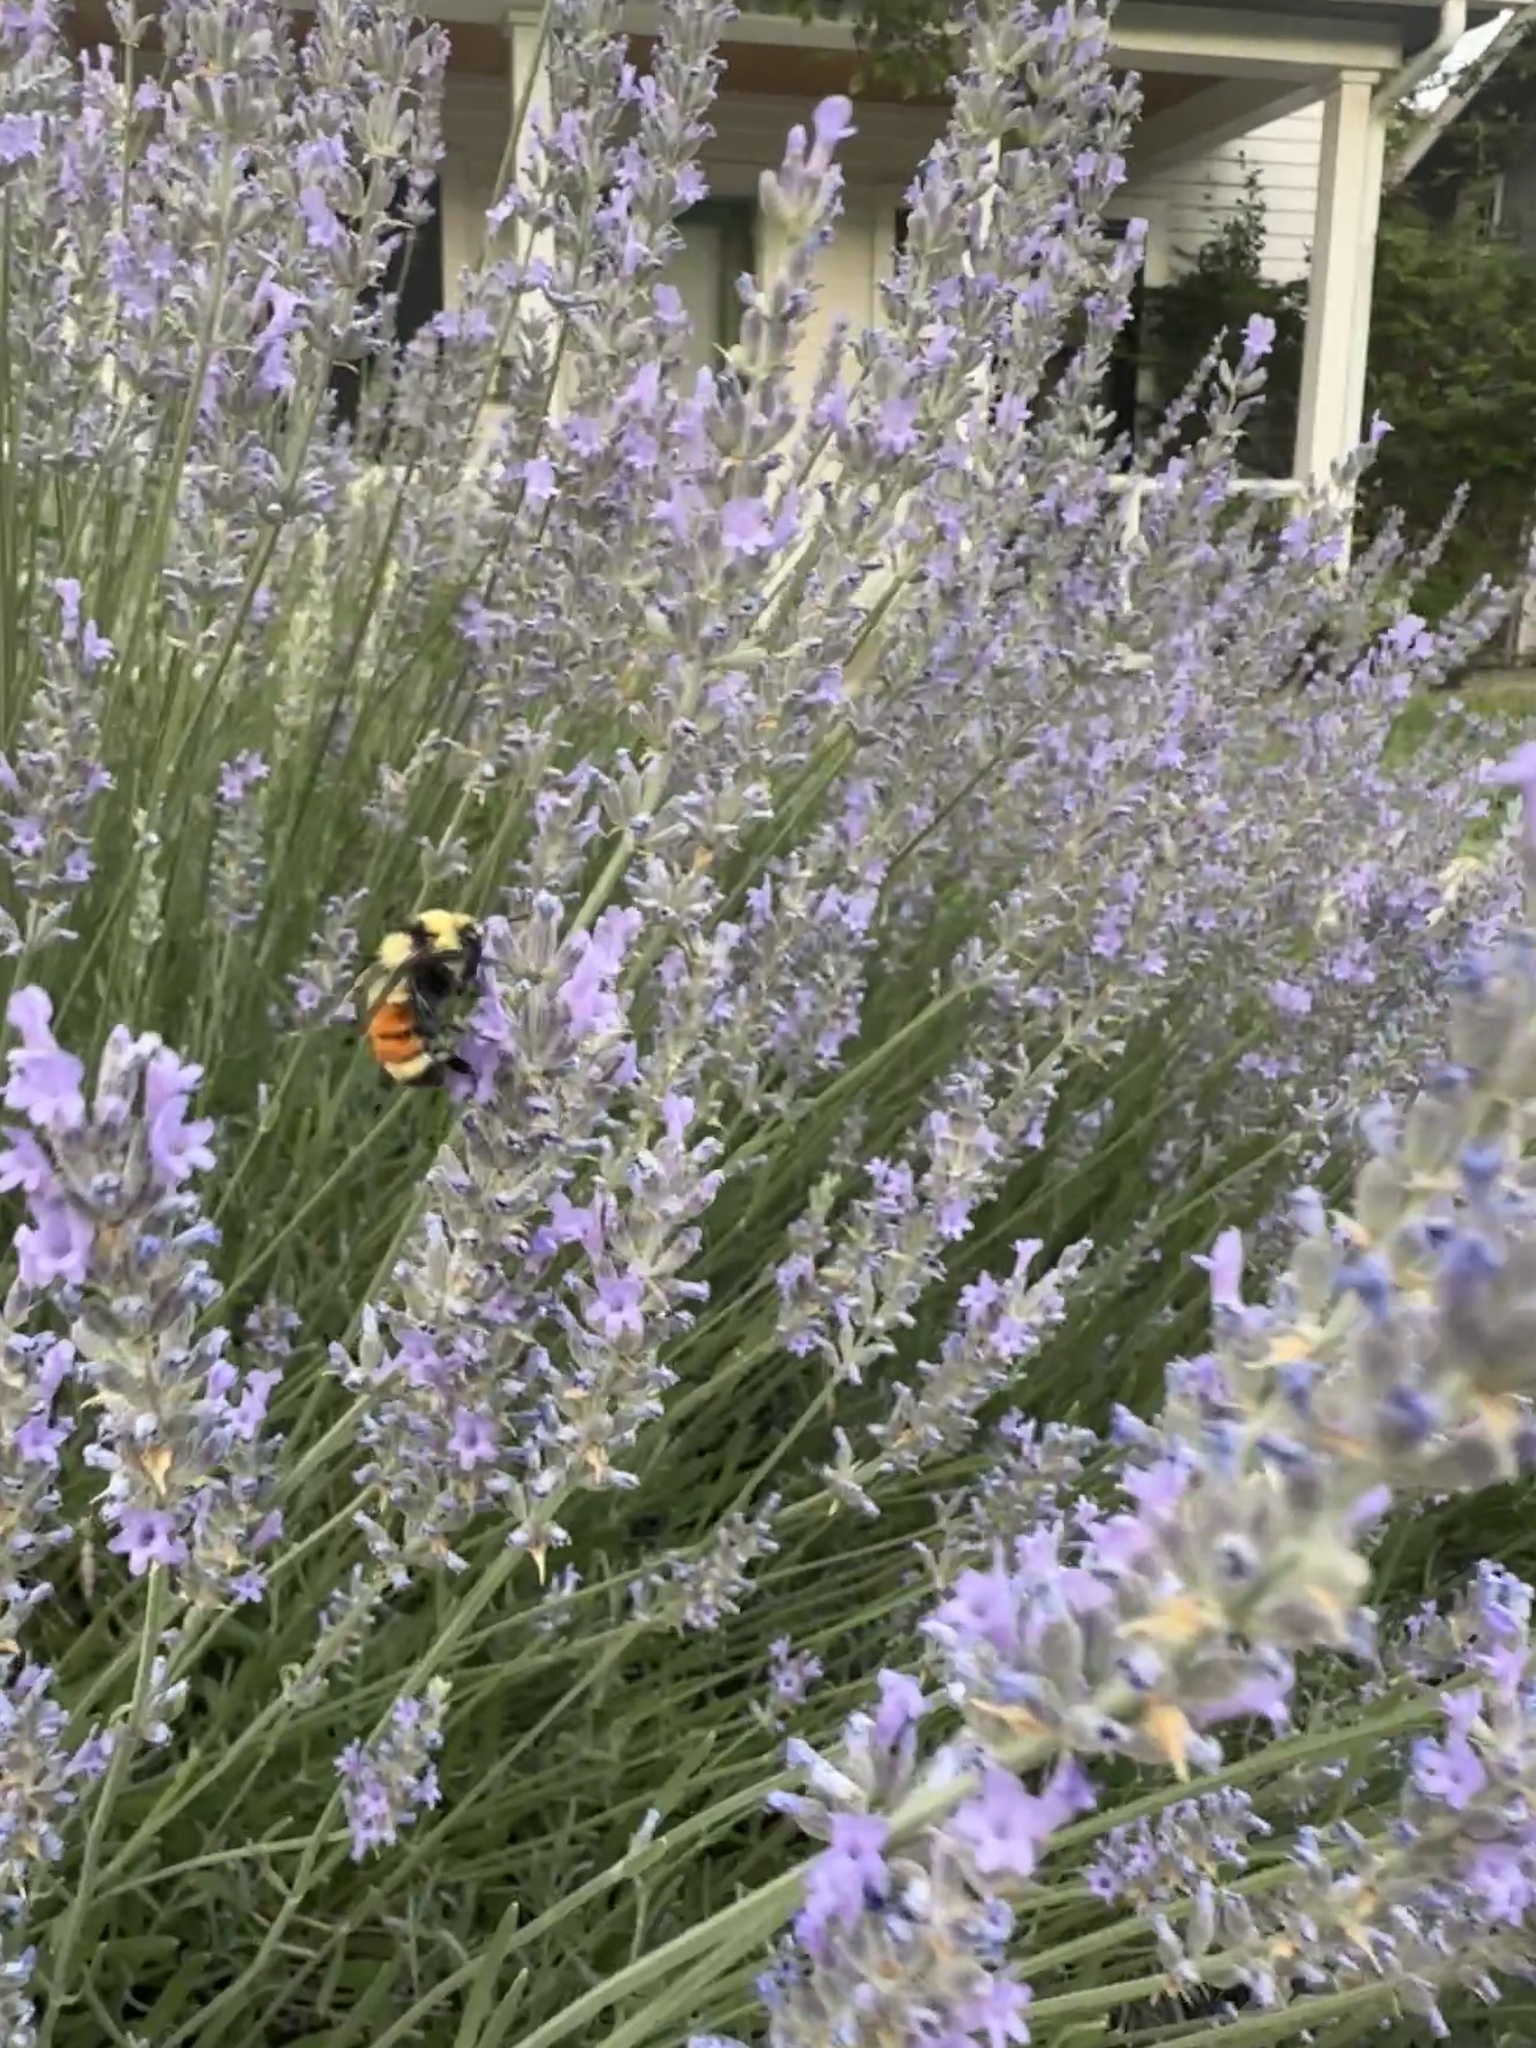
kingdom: Animalia
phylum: Arthropoda
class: Insecta
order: Hymenoptera
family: Apidae
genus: Bombus
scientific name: Bombus huntii
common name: Hunt bumble bee
